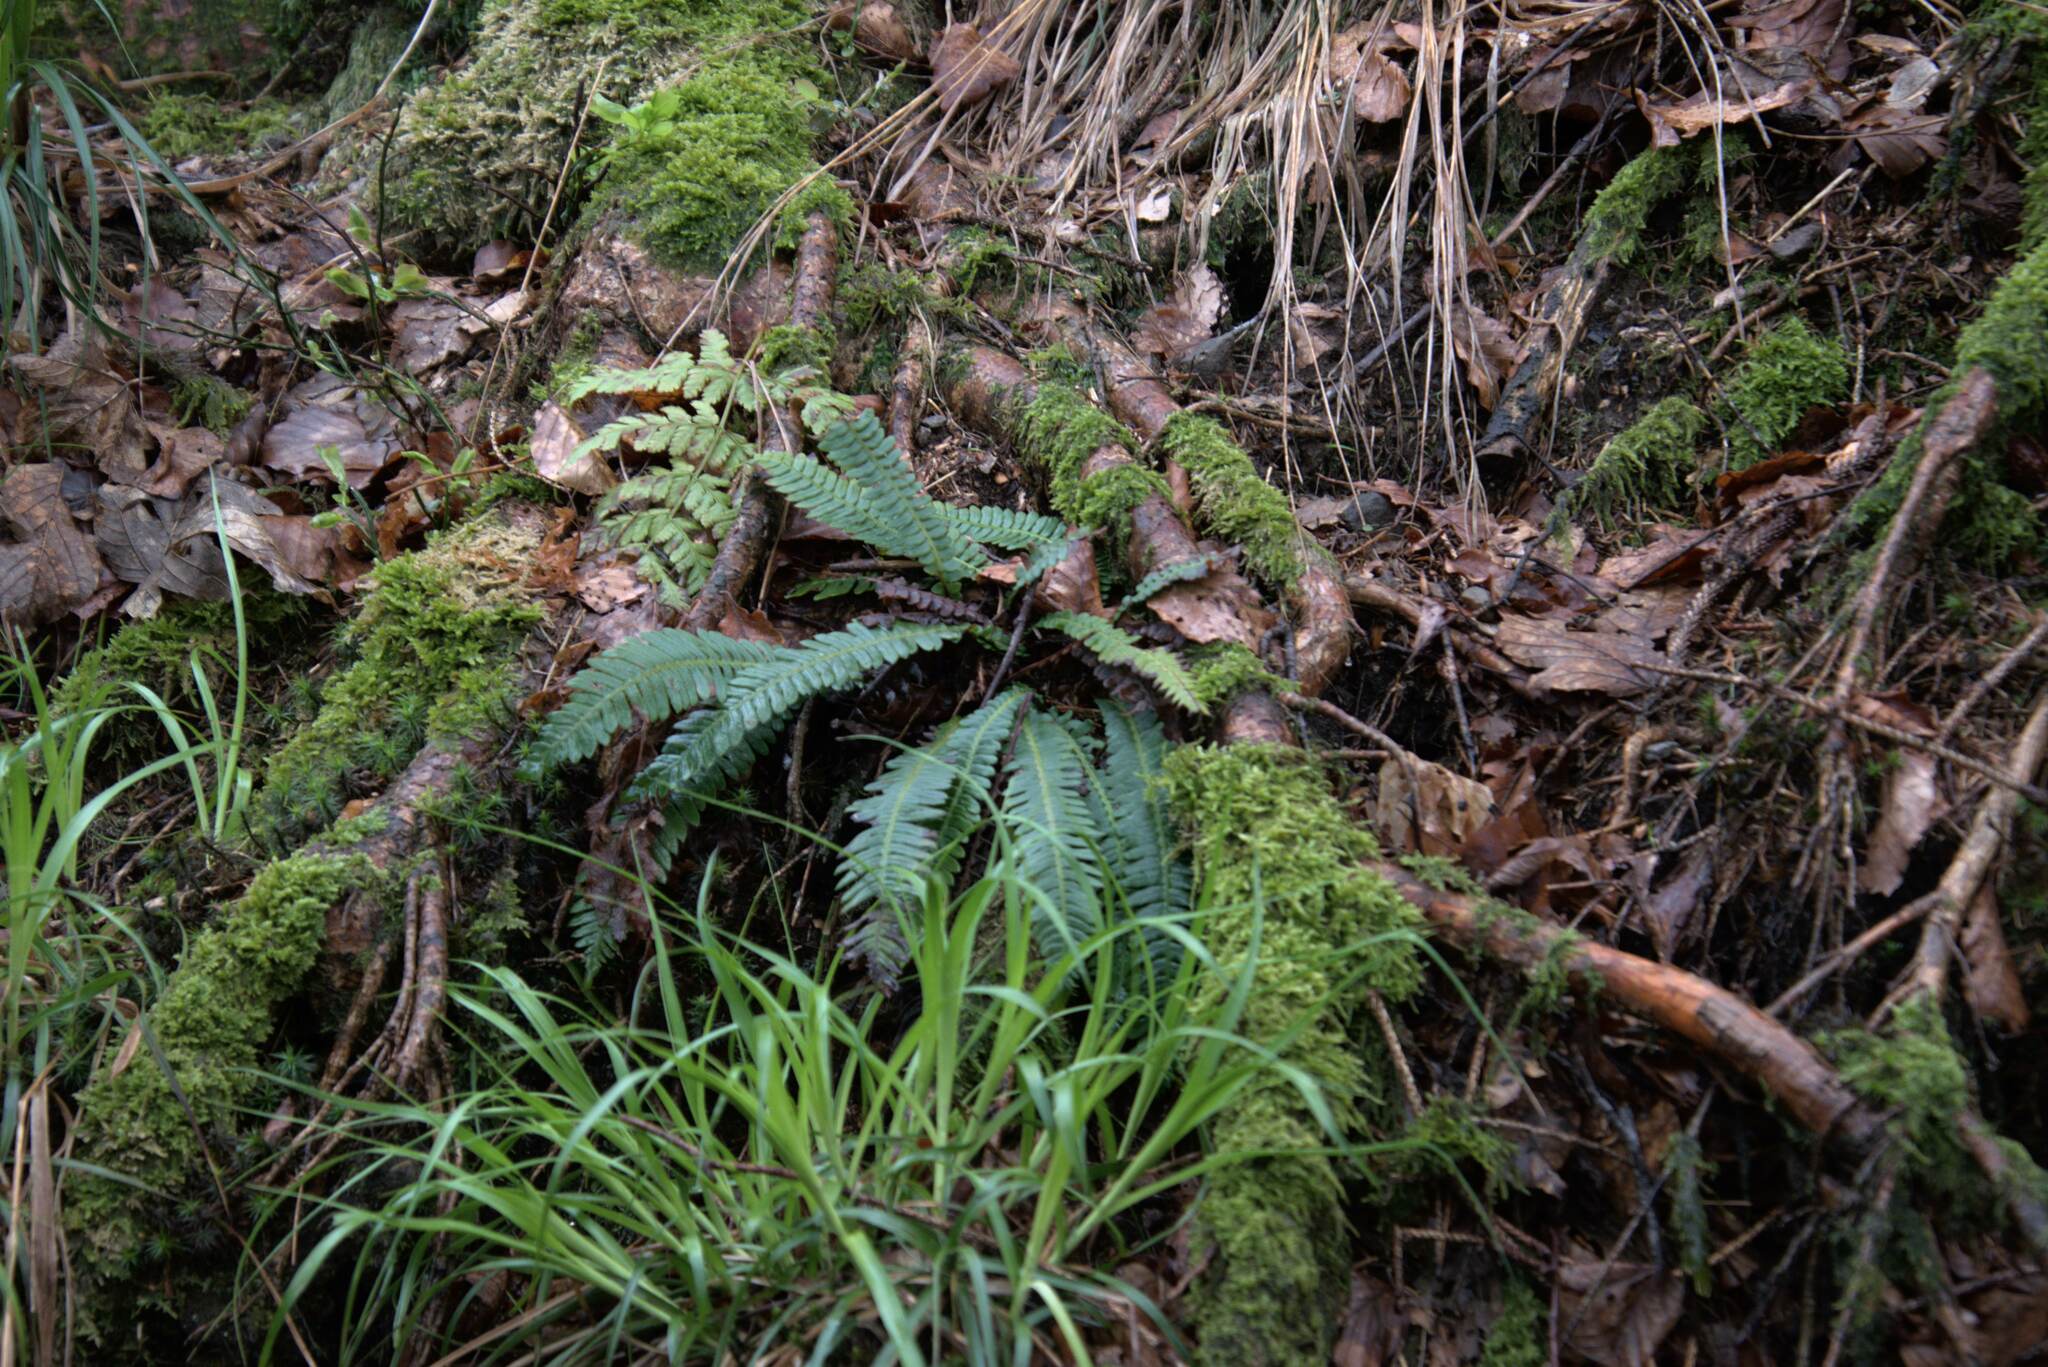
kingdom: Plantae
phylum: Tracheophyta
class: Polypodiopsida
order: Polypodiales
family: Blechnaceae
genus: Struthiopteris
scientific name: Struthiopteris spicant
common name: Deer fern
